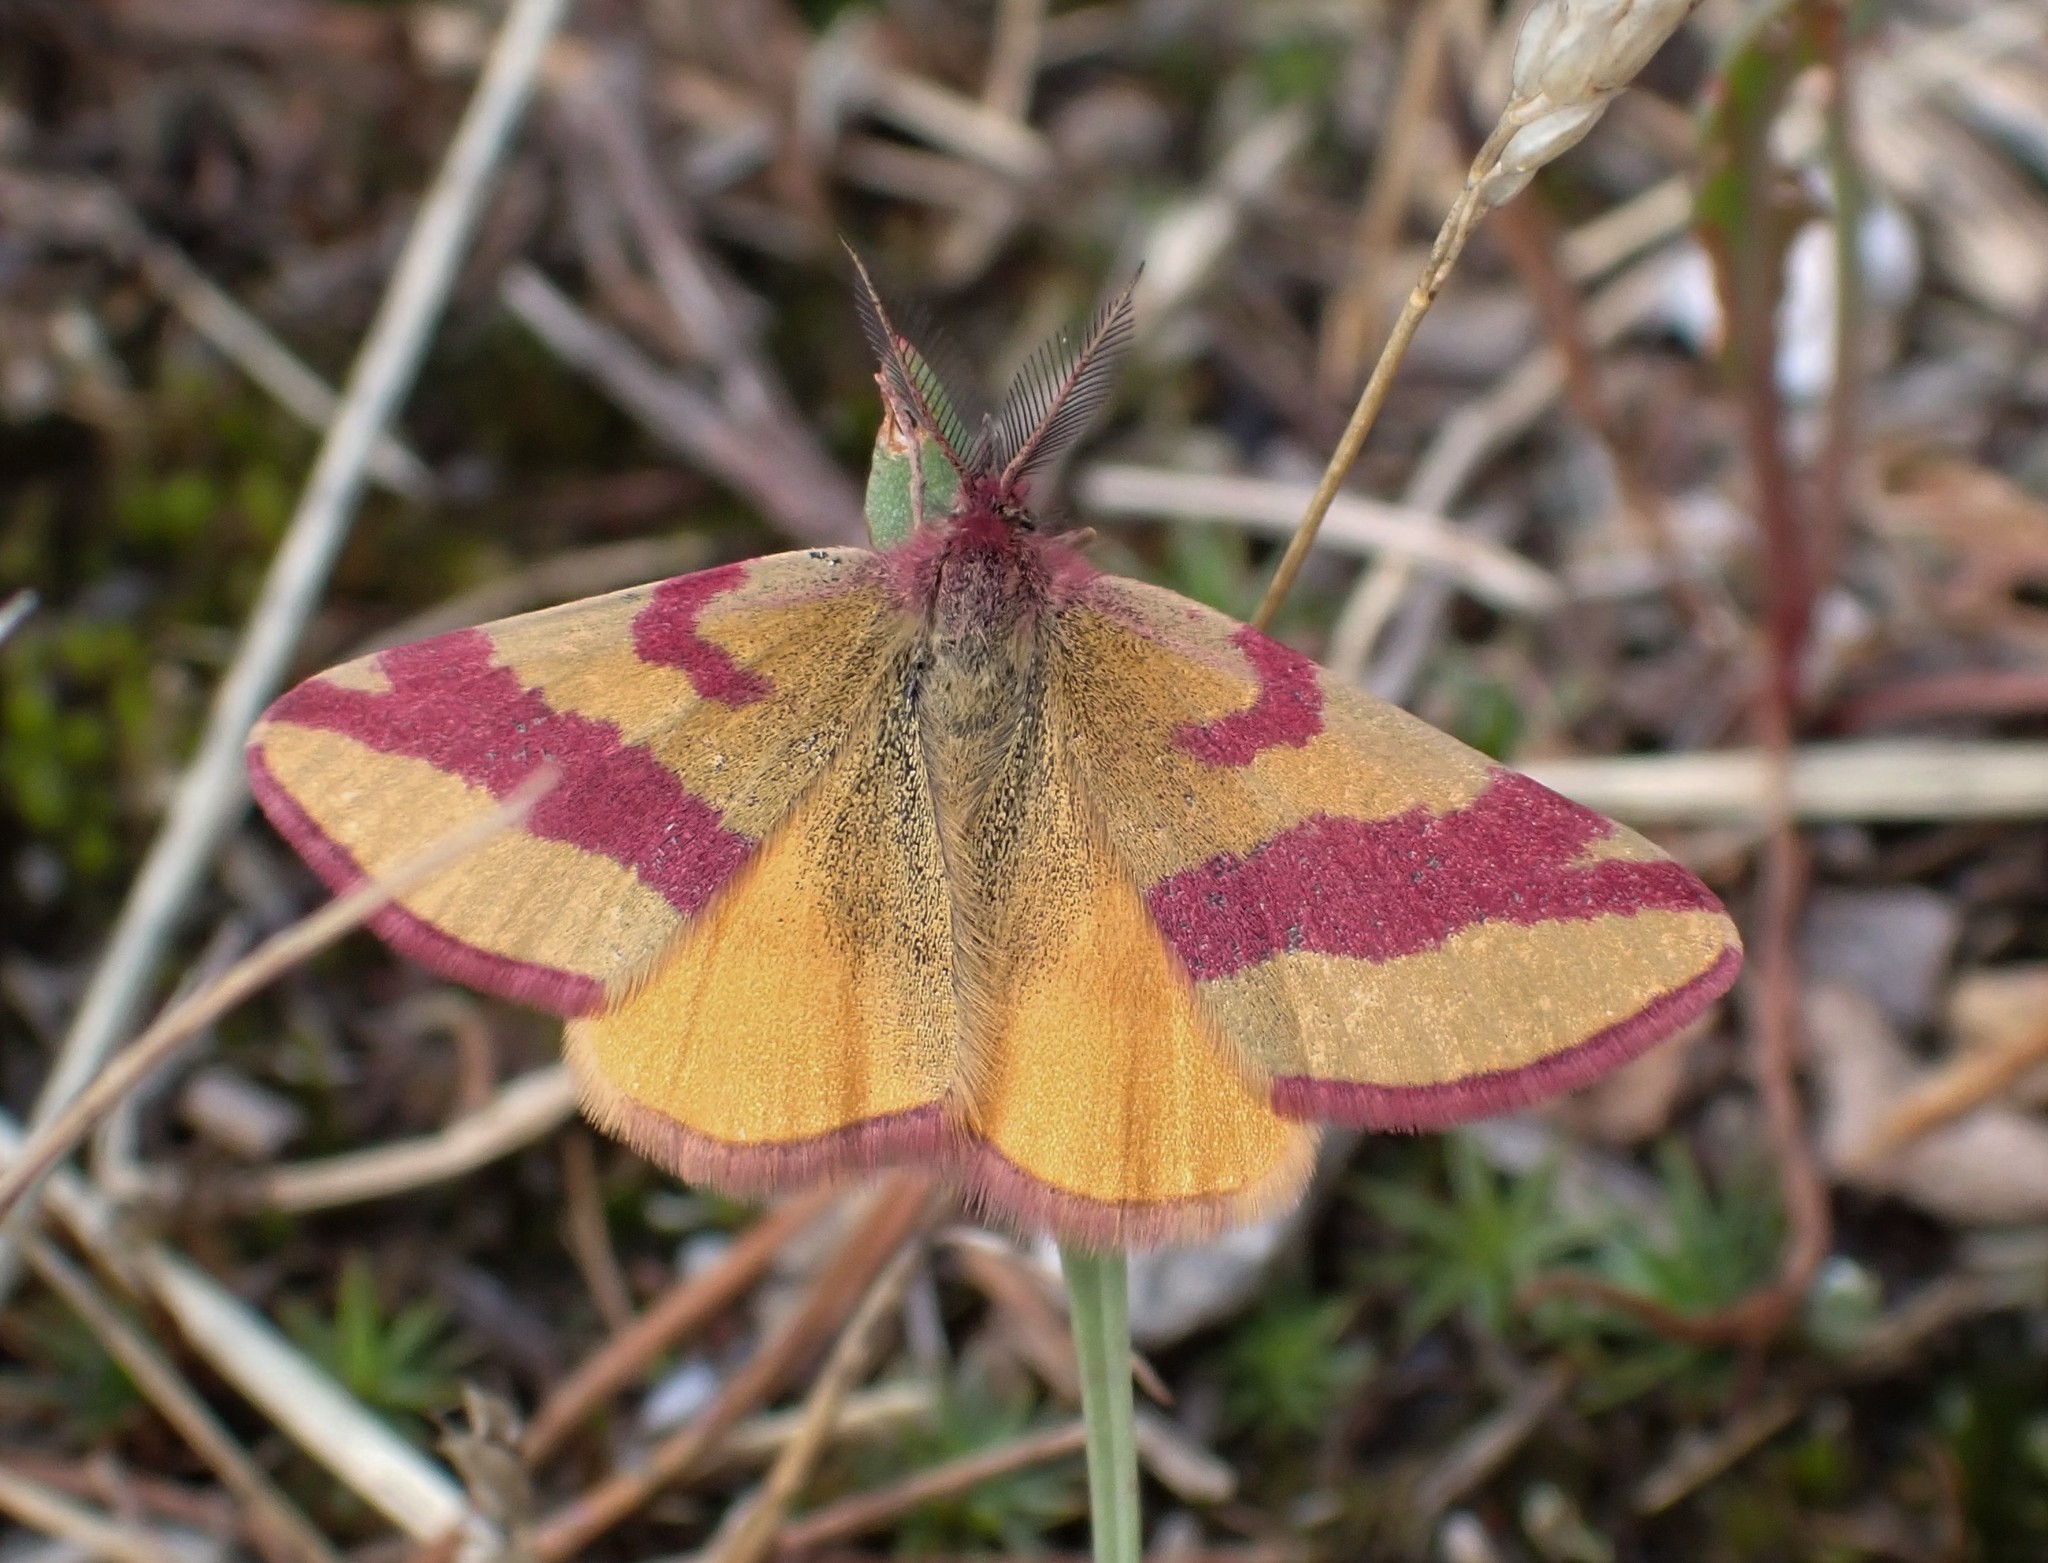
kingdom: Animalia
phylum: Arthropoda
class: Insecta
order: Lepidoptera
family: Geometridae
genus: Lythria
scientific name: Lythria cruentaria
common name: Purple-barred yellow
